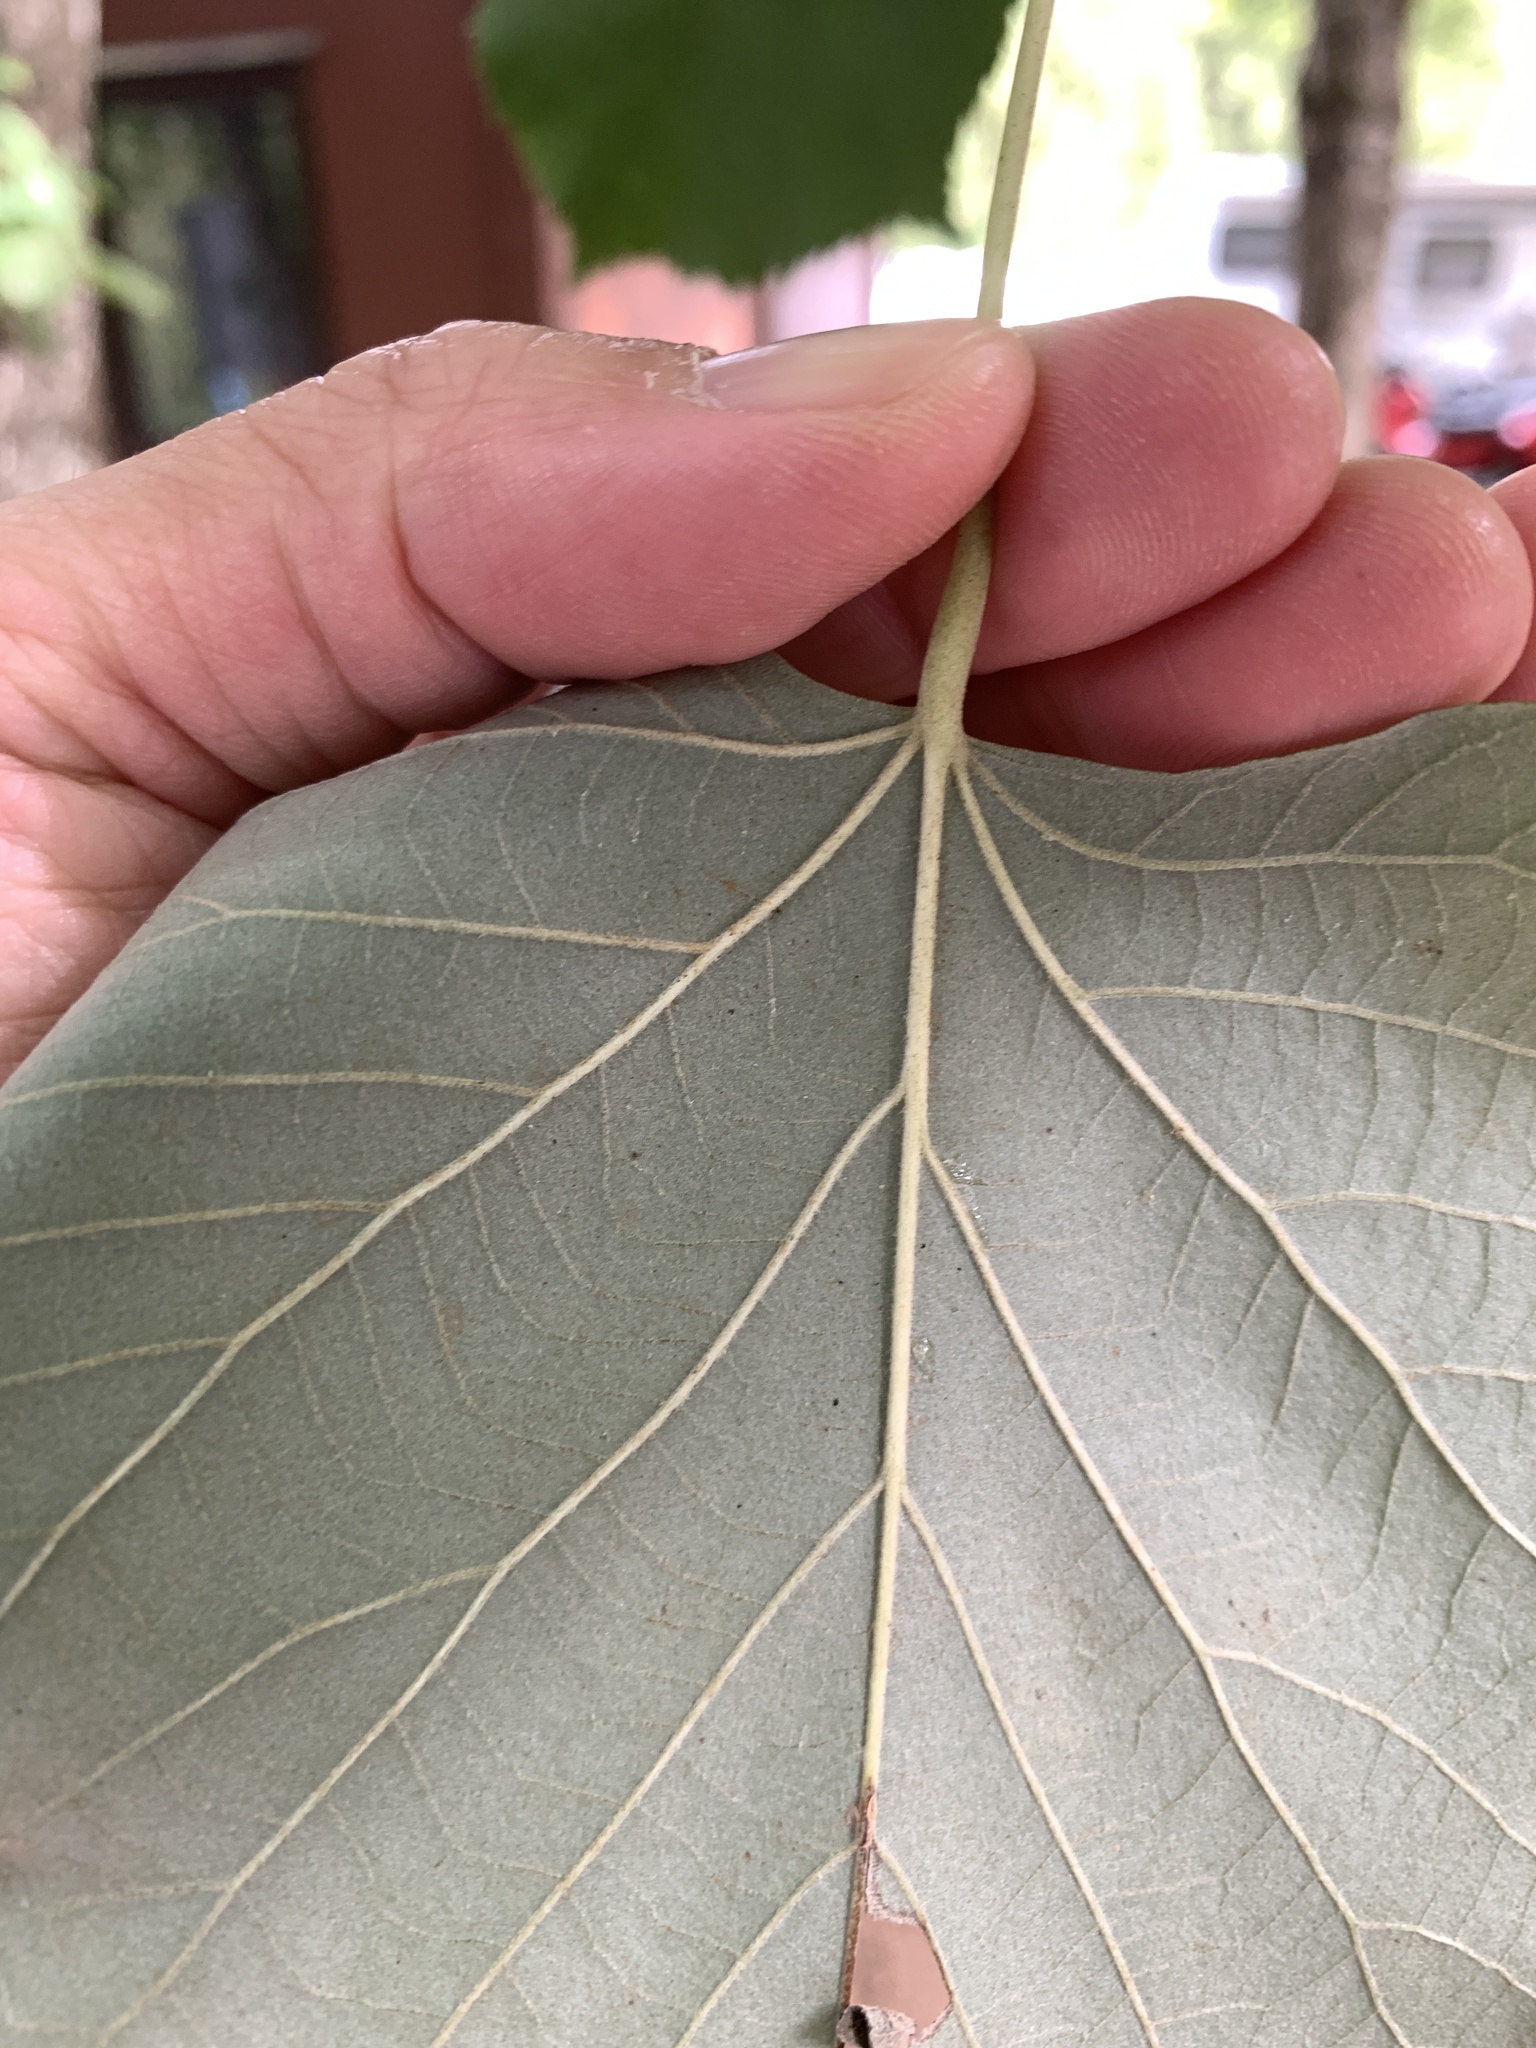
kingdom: Plantae
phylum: Tracheophyta
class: Magnoliopsida
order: Malvales
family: Malvaceae
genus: Tilia
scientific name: Tilia tomentosa
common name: Silver lime
